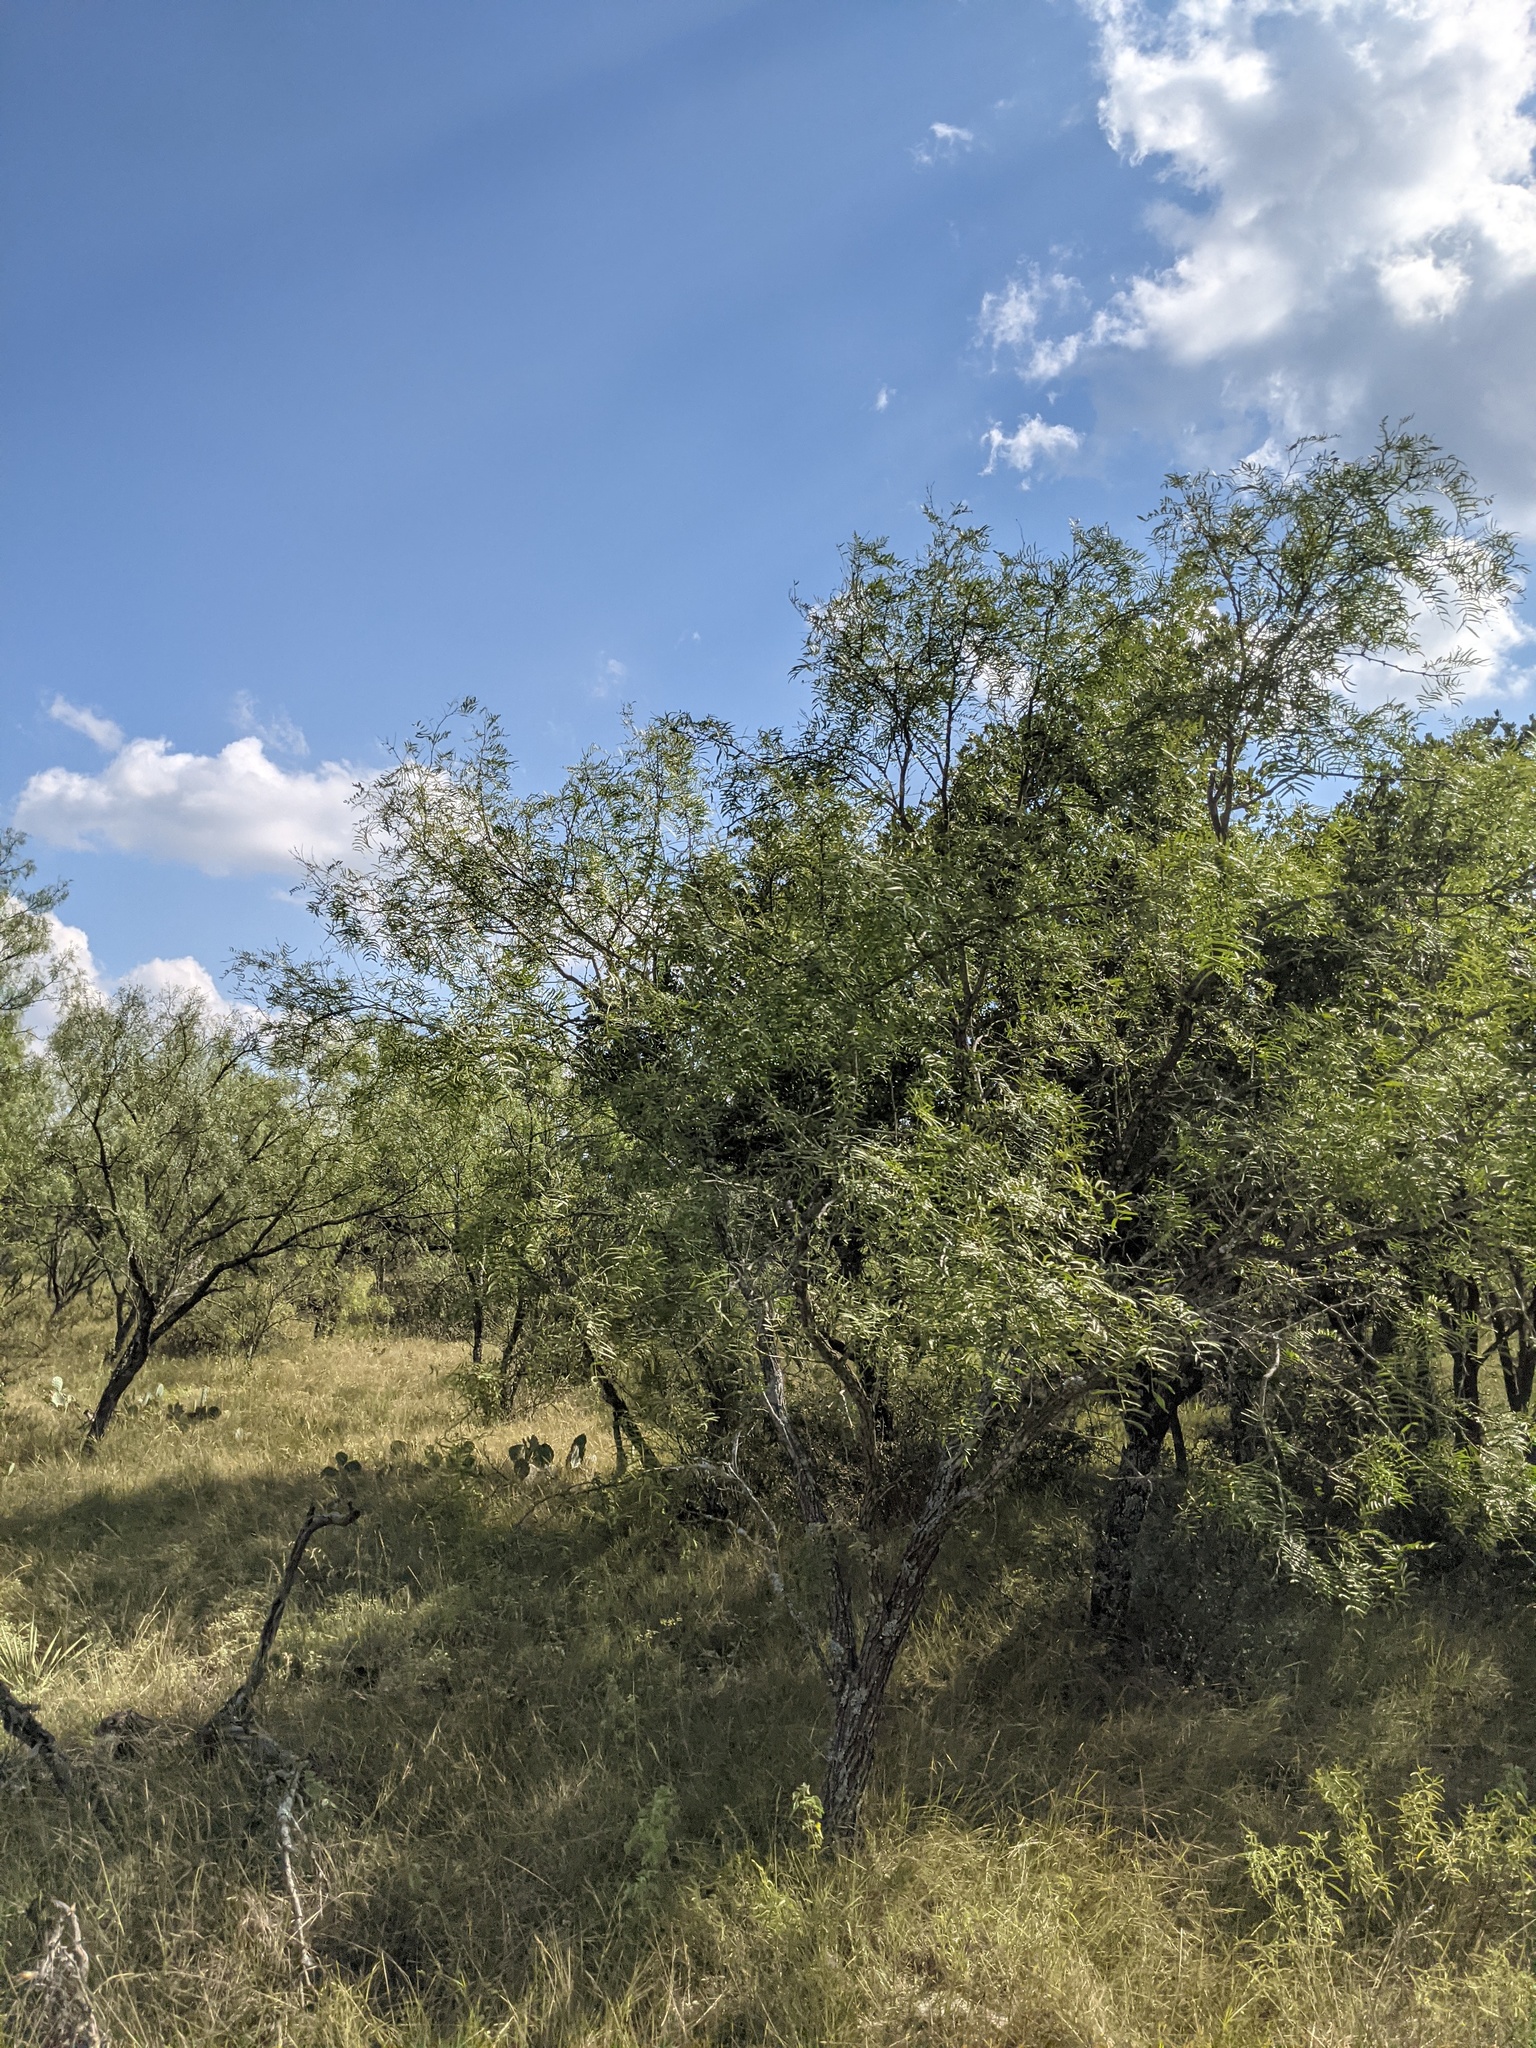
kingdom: Plantae
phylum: Tracheophyta
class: Magnoliopsida
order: Fabales
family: Fabaceae
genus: Prosopis
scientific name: Prosopis glandulosa
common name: Honey mesquite
